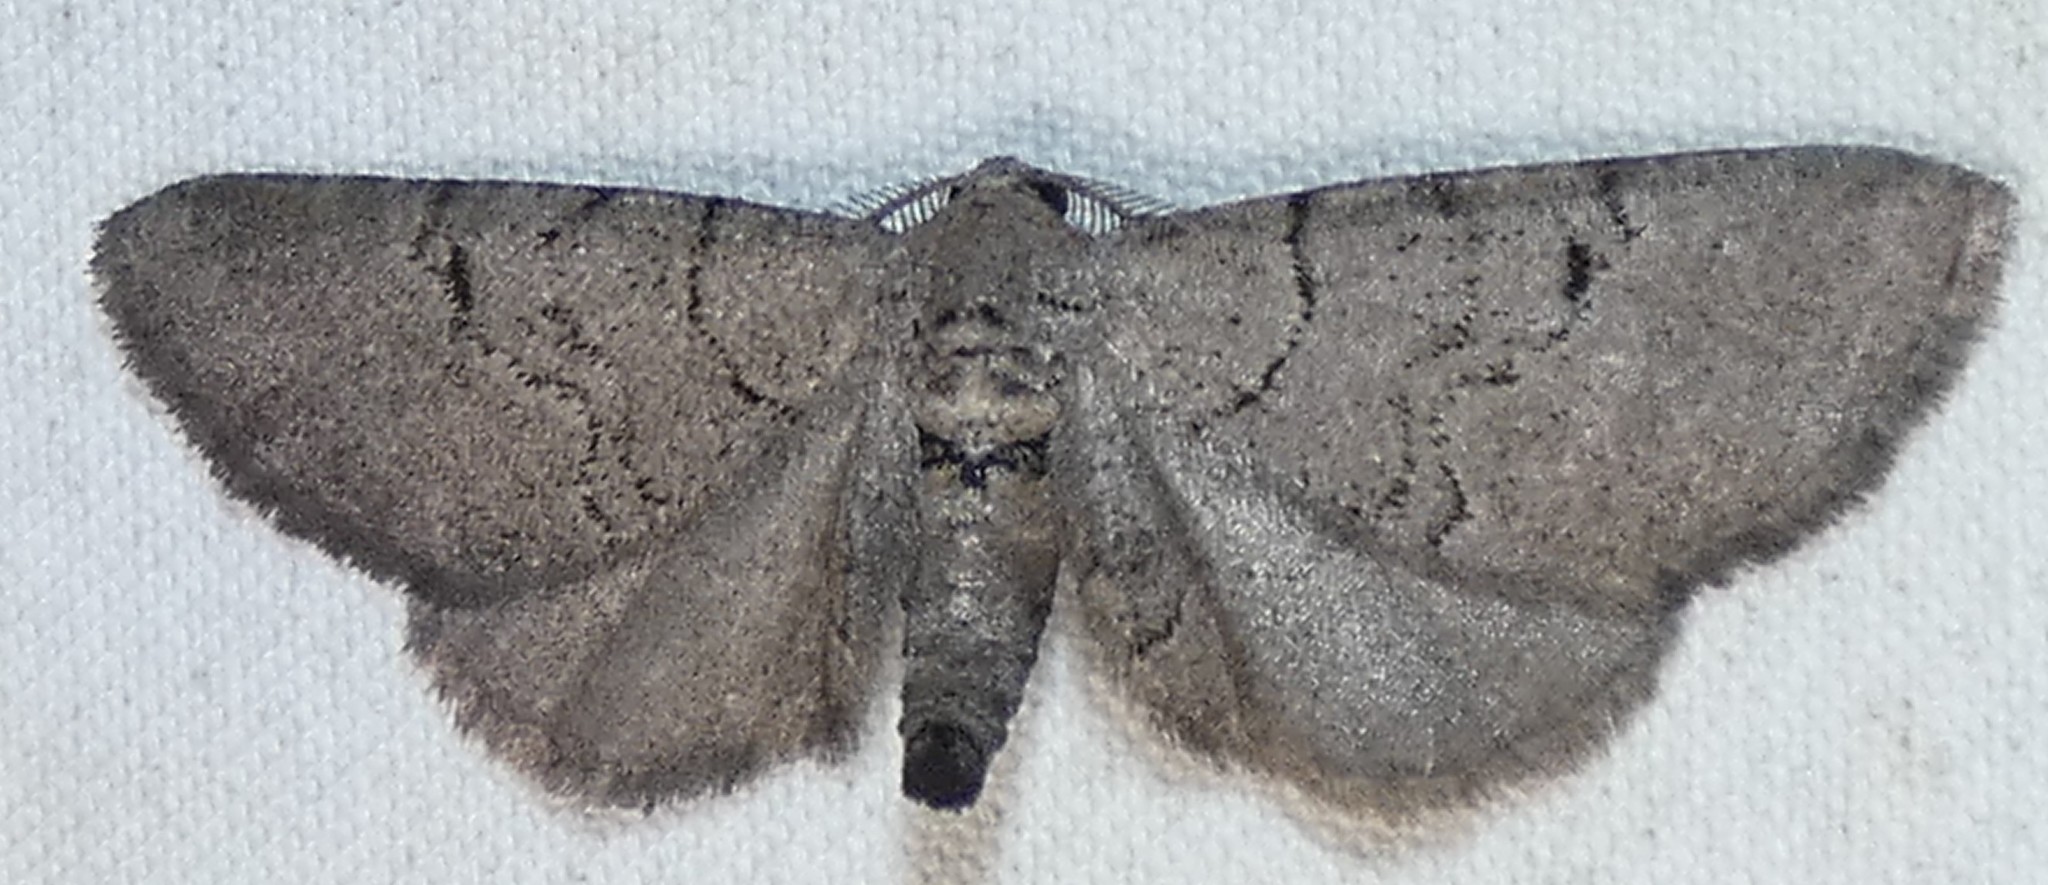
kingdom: Animalia
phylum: Arthropoda
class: Insecta
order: Lepidoptera
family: Geometridae
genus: Exelis
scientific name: Exelis pyrolaria
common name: Fine lined gray
